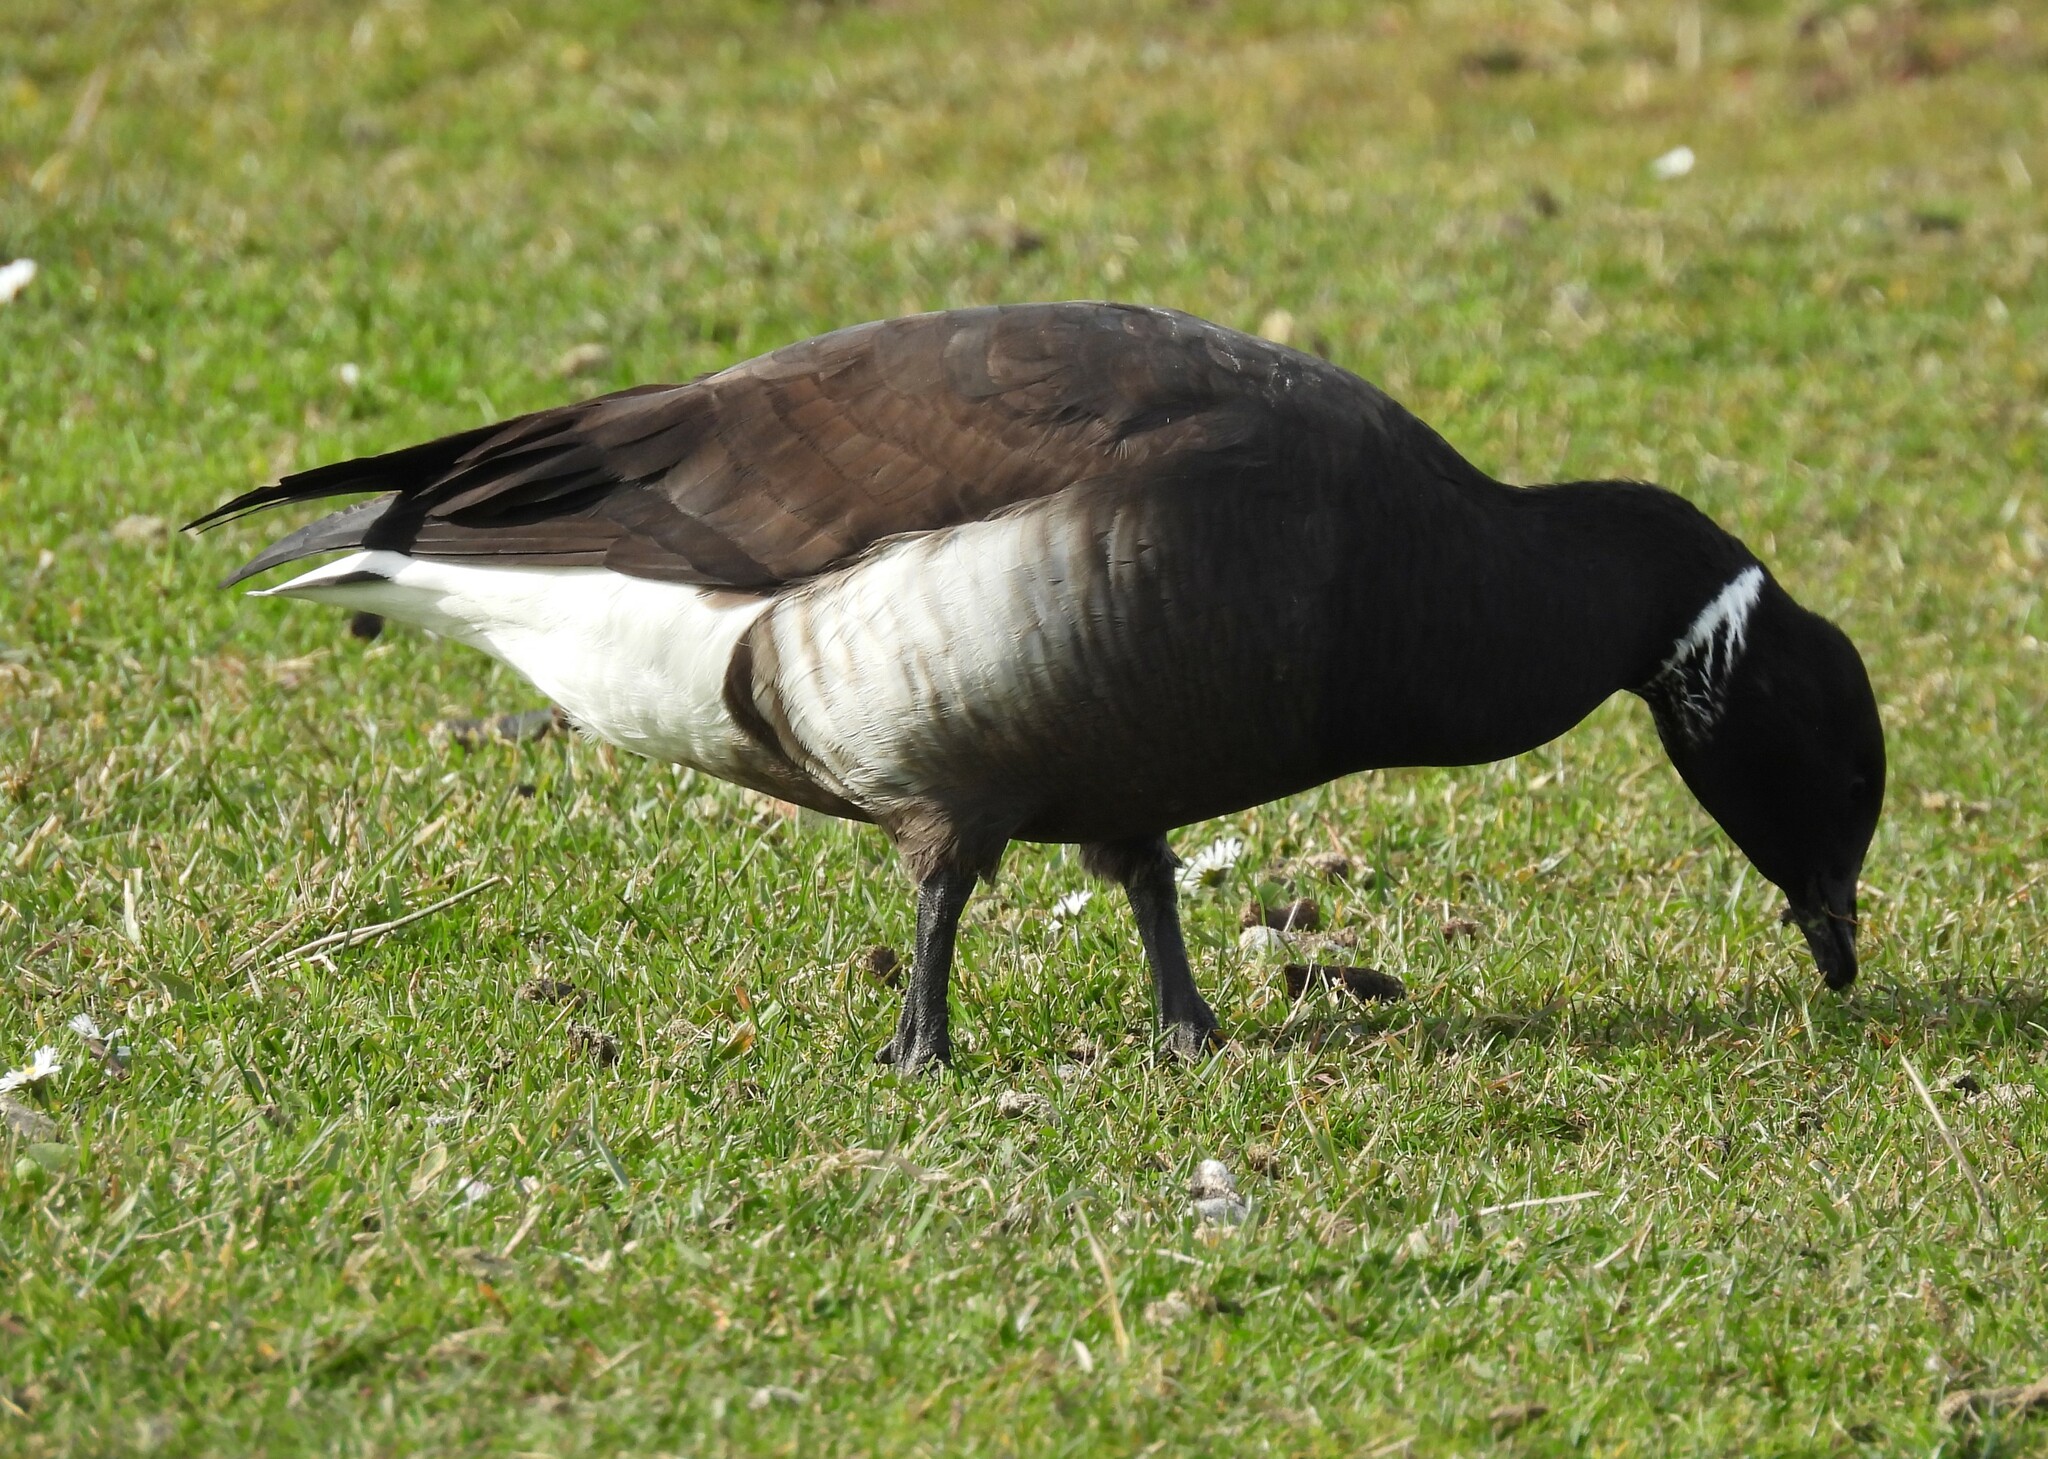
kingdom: Animalia
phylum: Chordata
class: Aves
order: Anseriformes
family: Anatidae
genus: Branta
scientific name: Branta bernicla
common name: Brant goose
